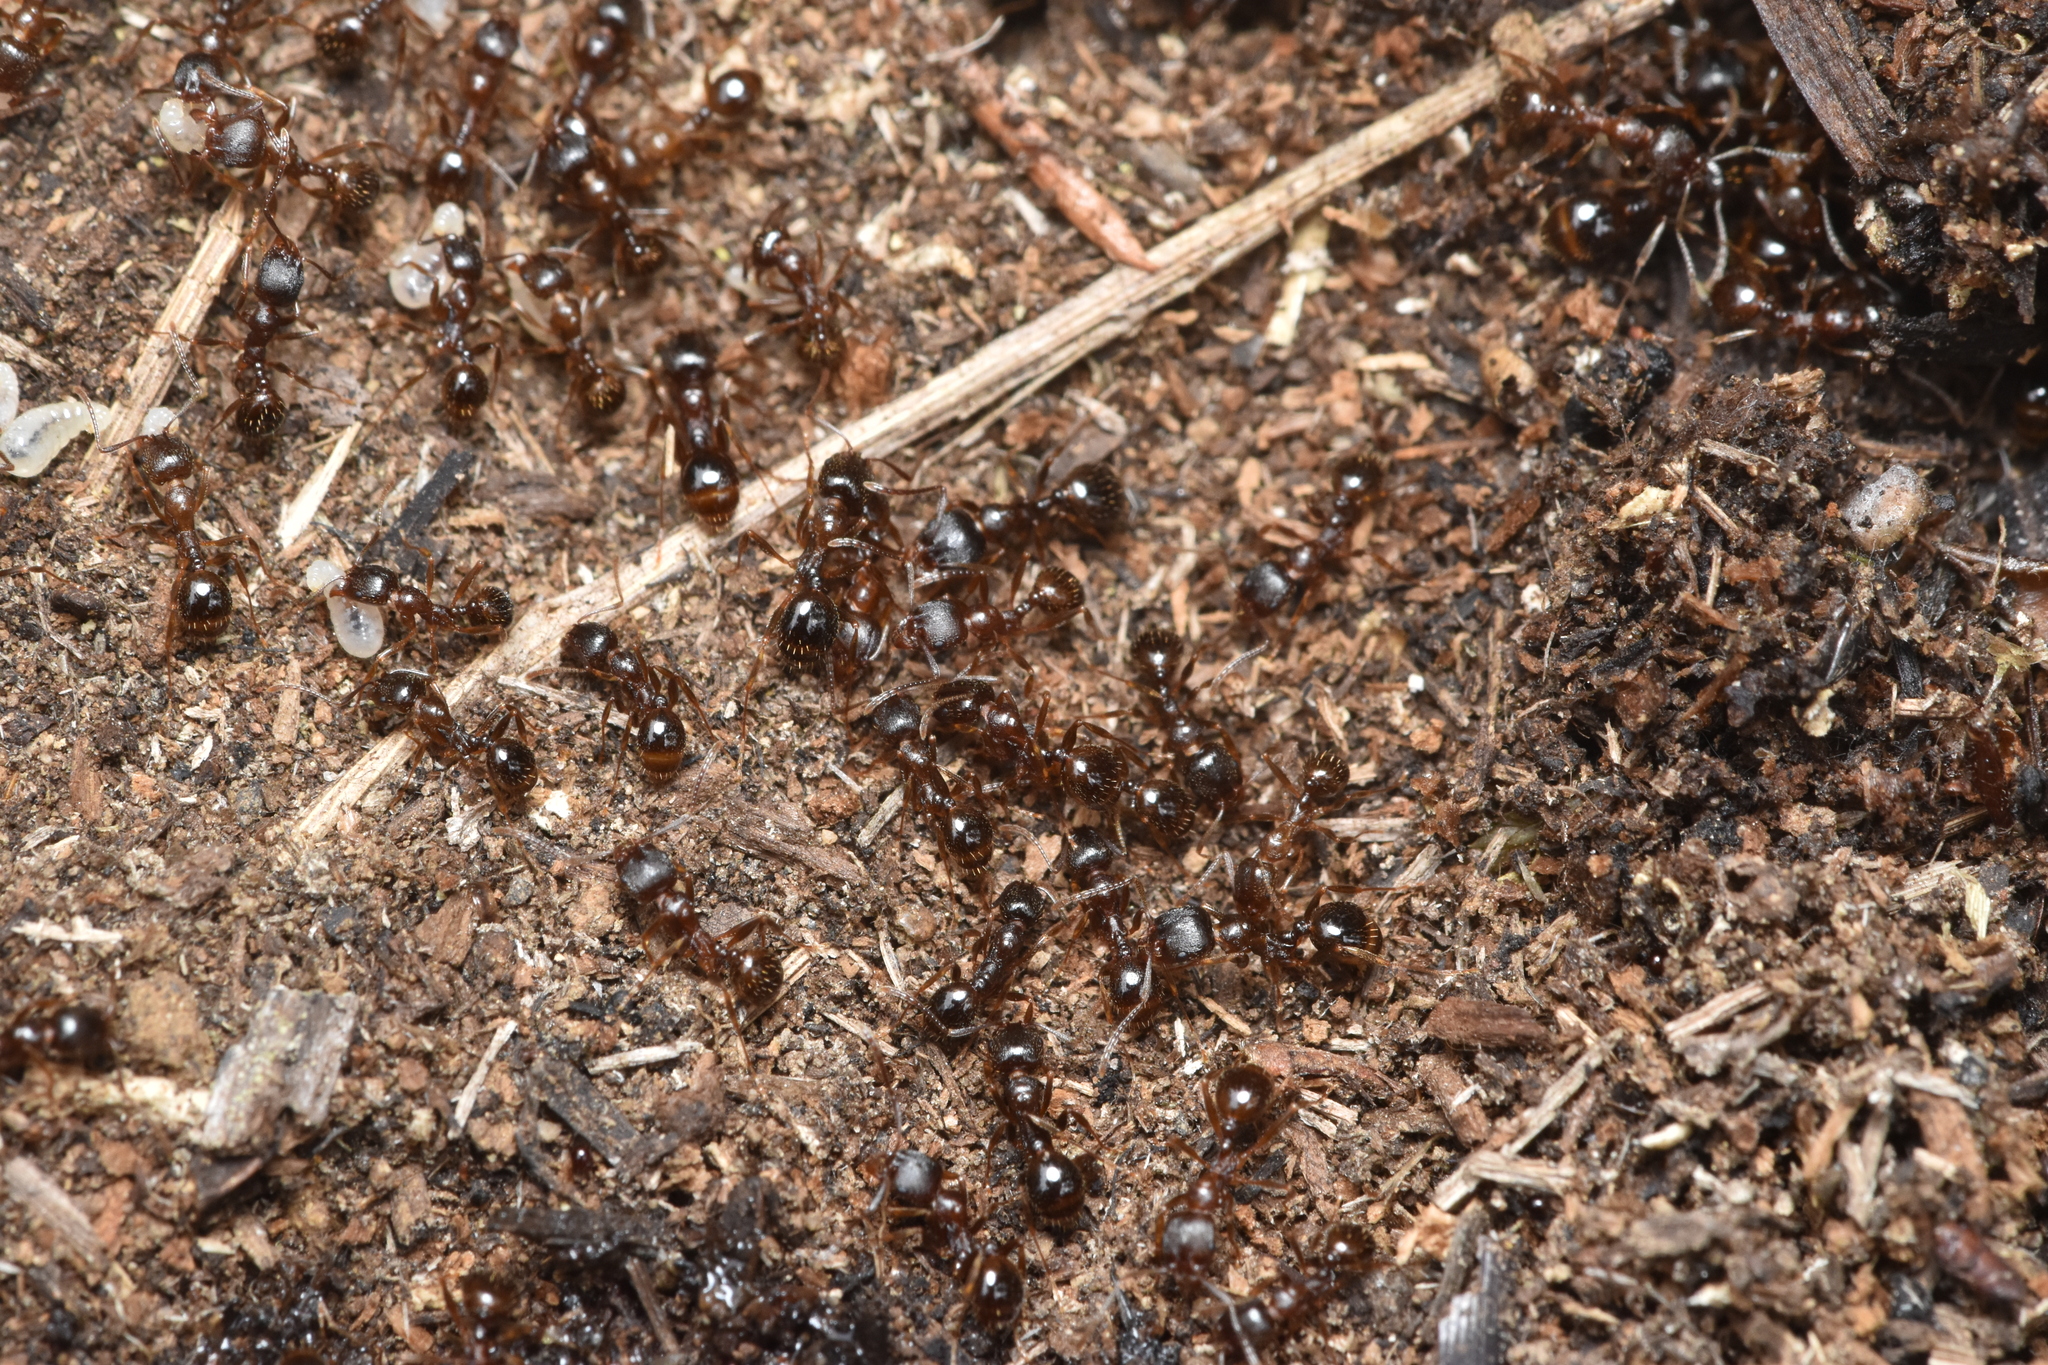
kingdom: Animalia
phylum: Arthropoda
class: Insecta
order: Hymenoptera
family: Formicidae
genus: Aphaenogaster
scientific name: Aphaenogaster occidentalis
